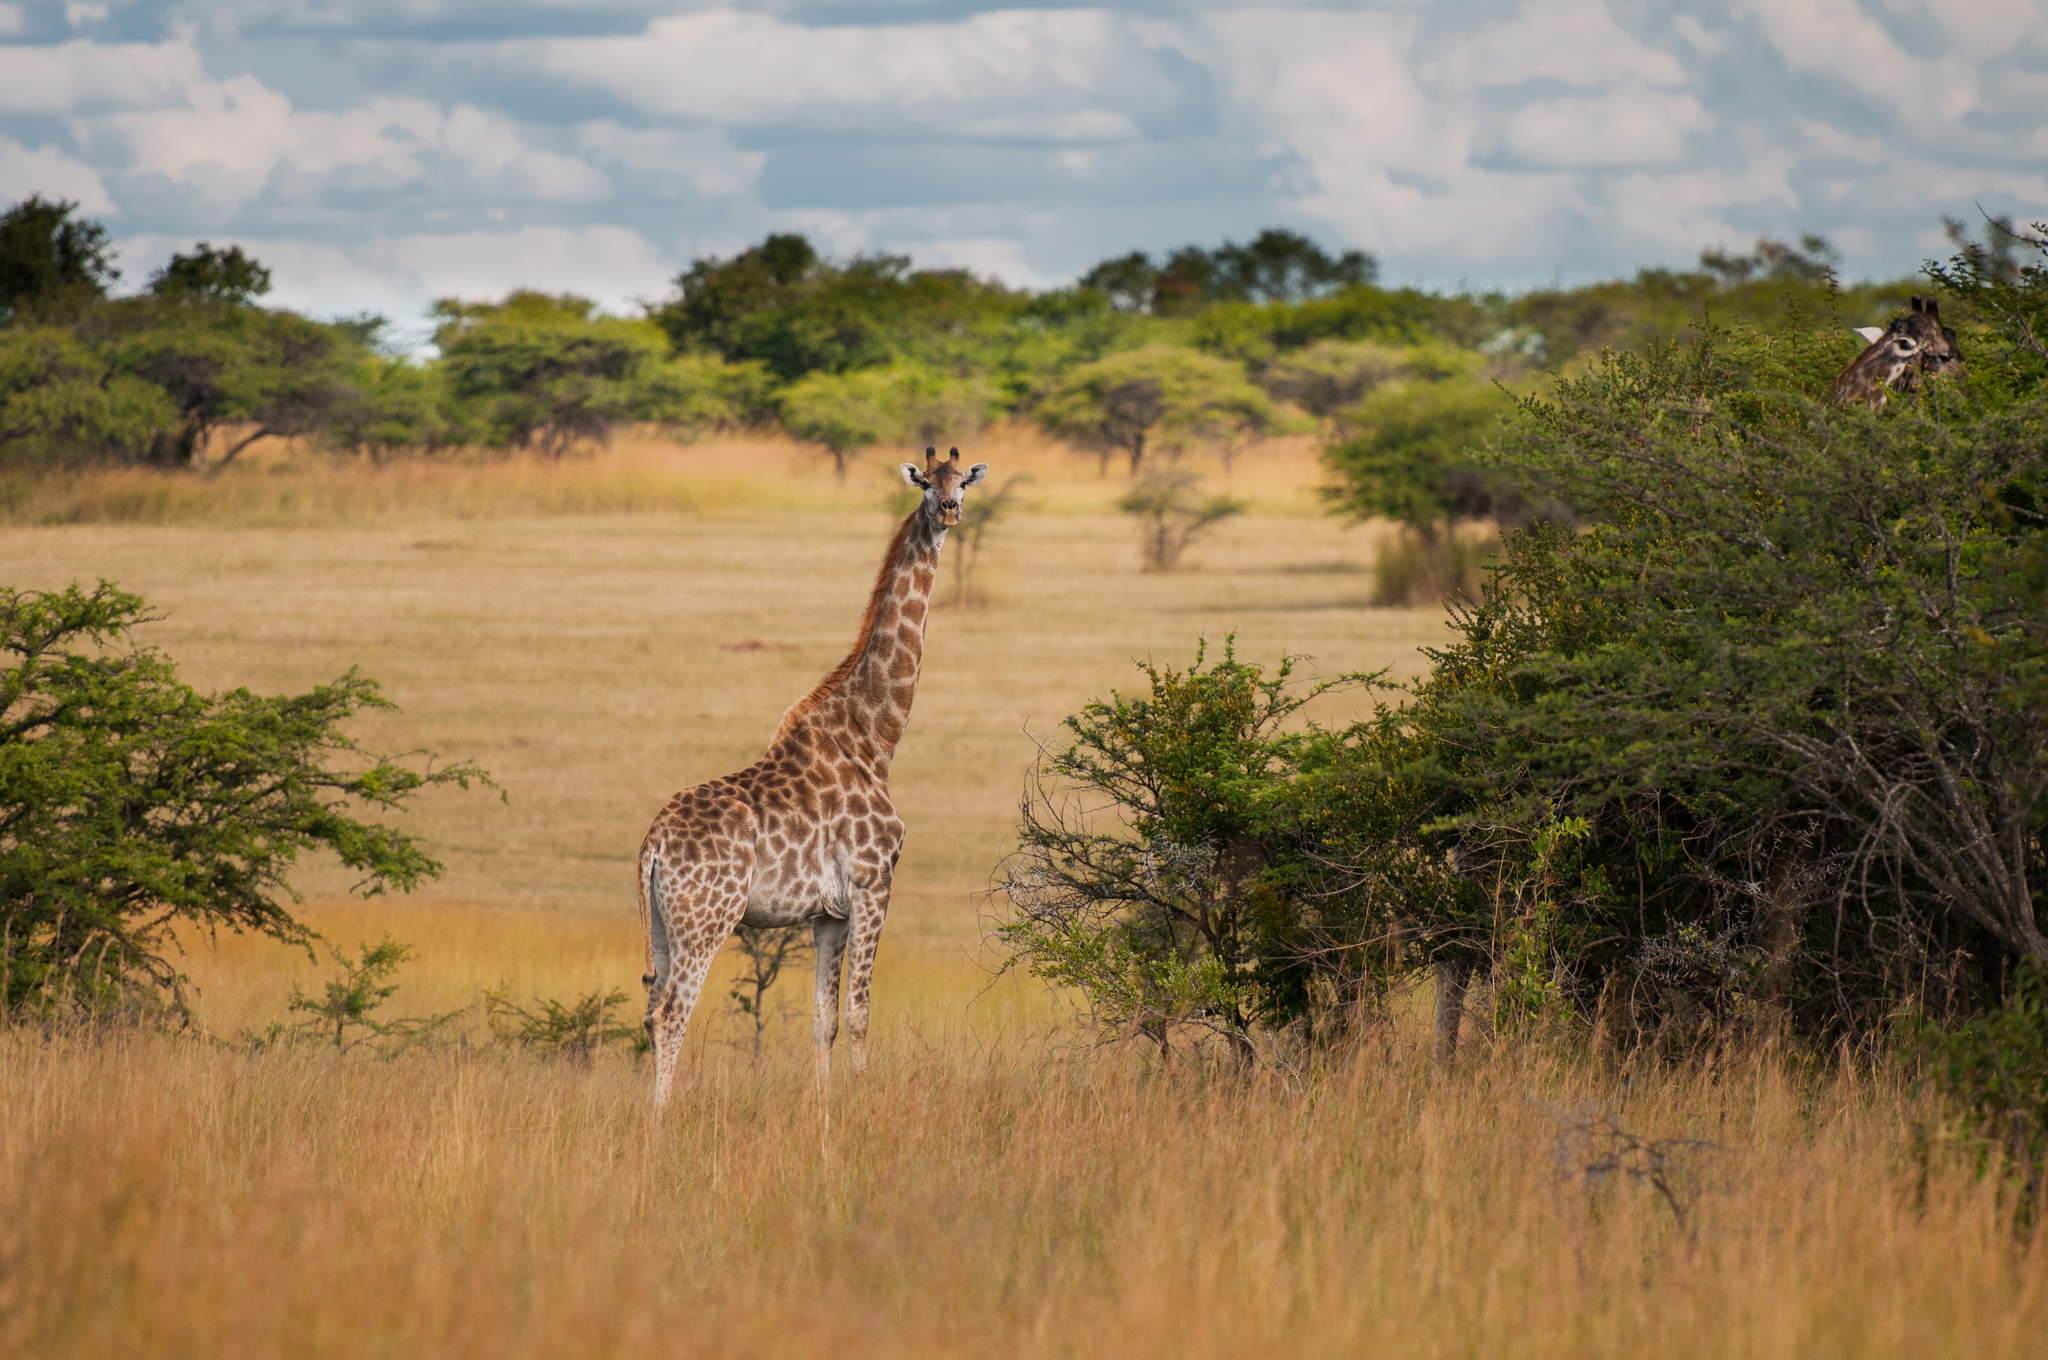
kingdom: Animalia
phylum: Chordata
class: Mammalia
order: Artiodactyla
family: Giraffidae
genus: Giraffa
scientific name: Giraffa giraffa
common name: Southern giraffe
